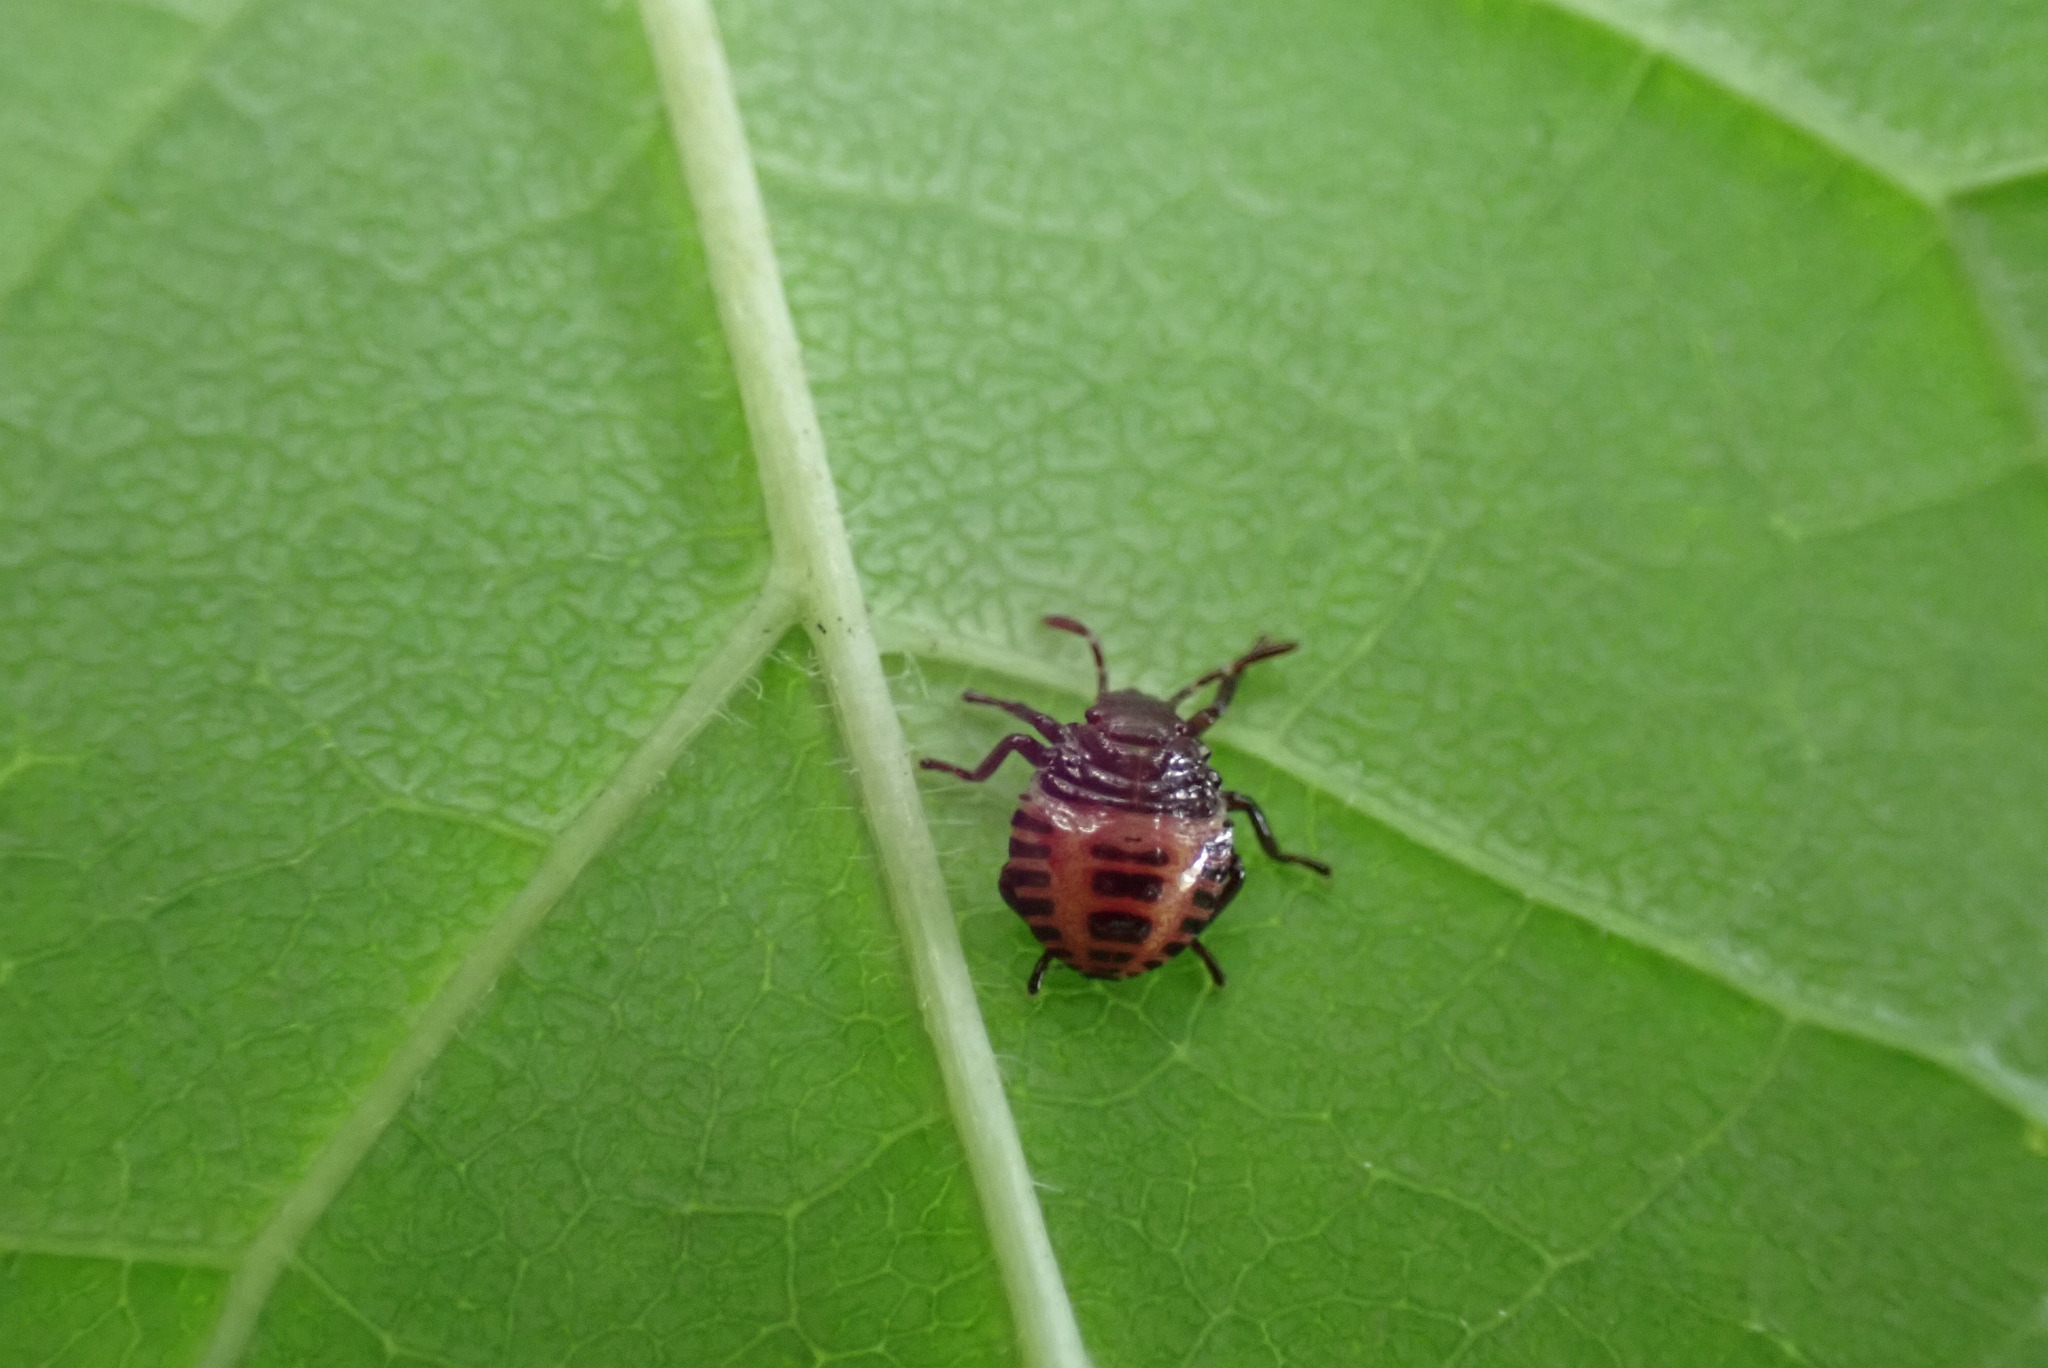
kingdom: Animalia
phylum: Arthropoda
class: Insecta
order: Hemiptera
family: Pentatomidae
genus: Halyomorpha
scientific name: Halyomorpha halys
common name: Brown marmorated stink bug
